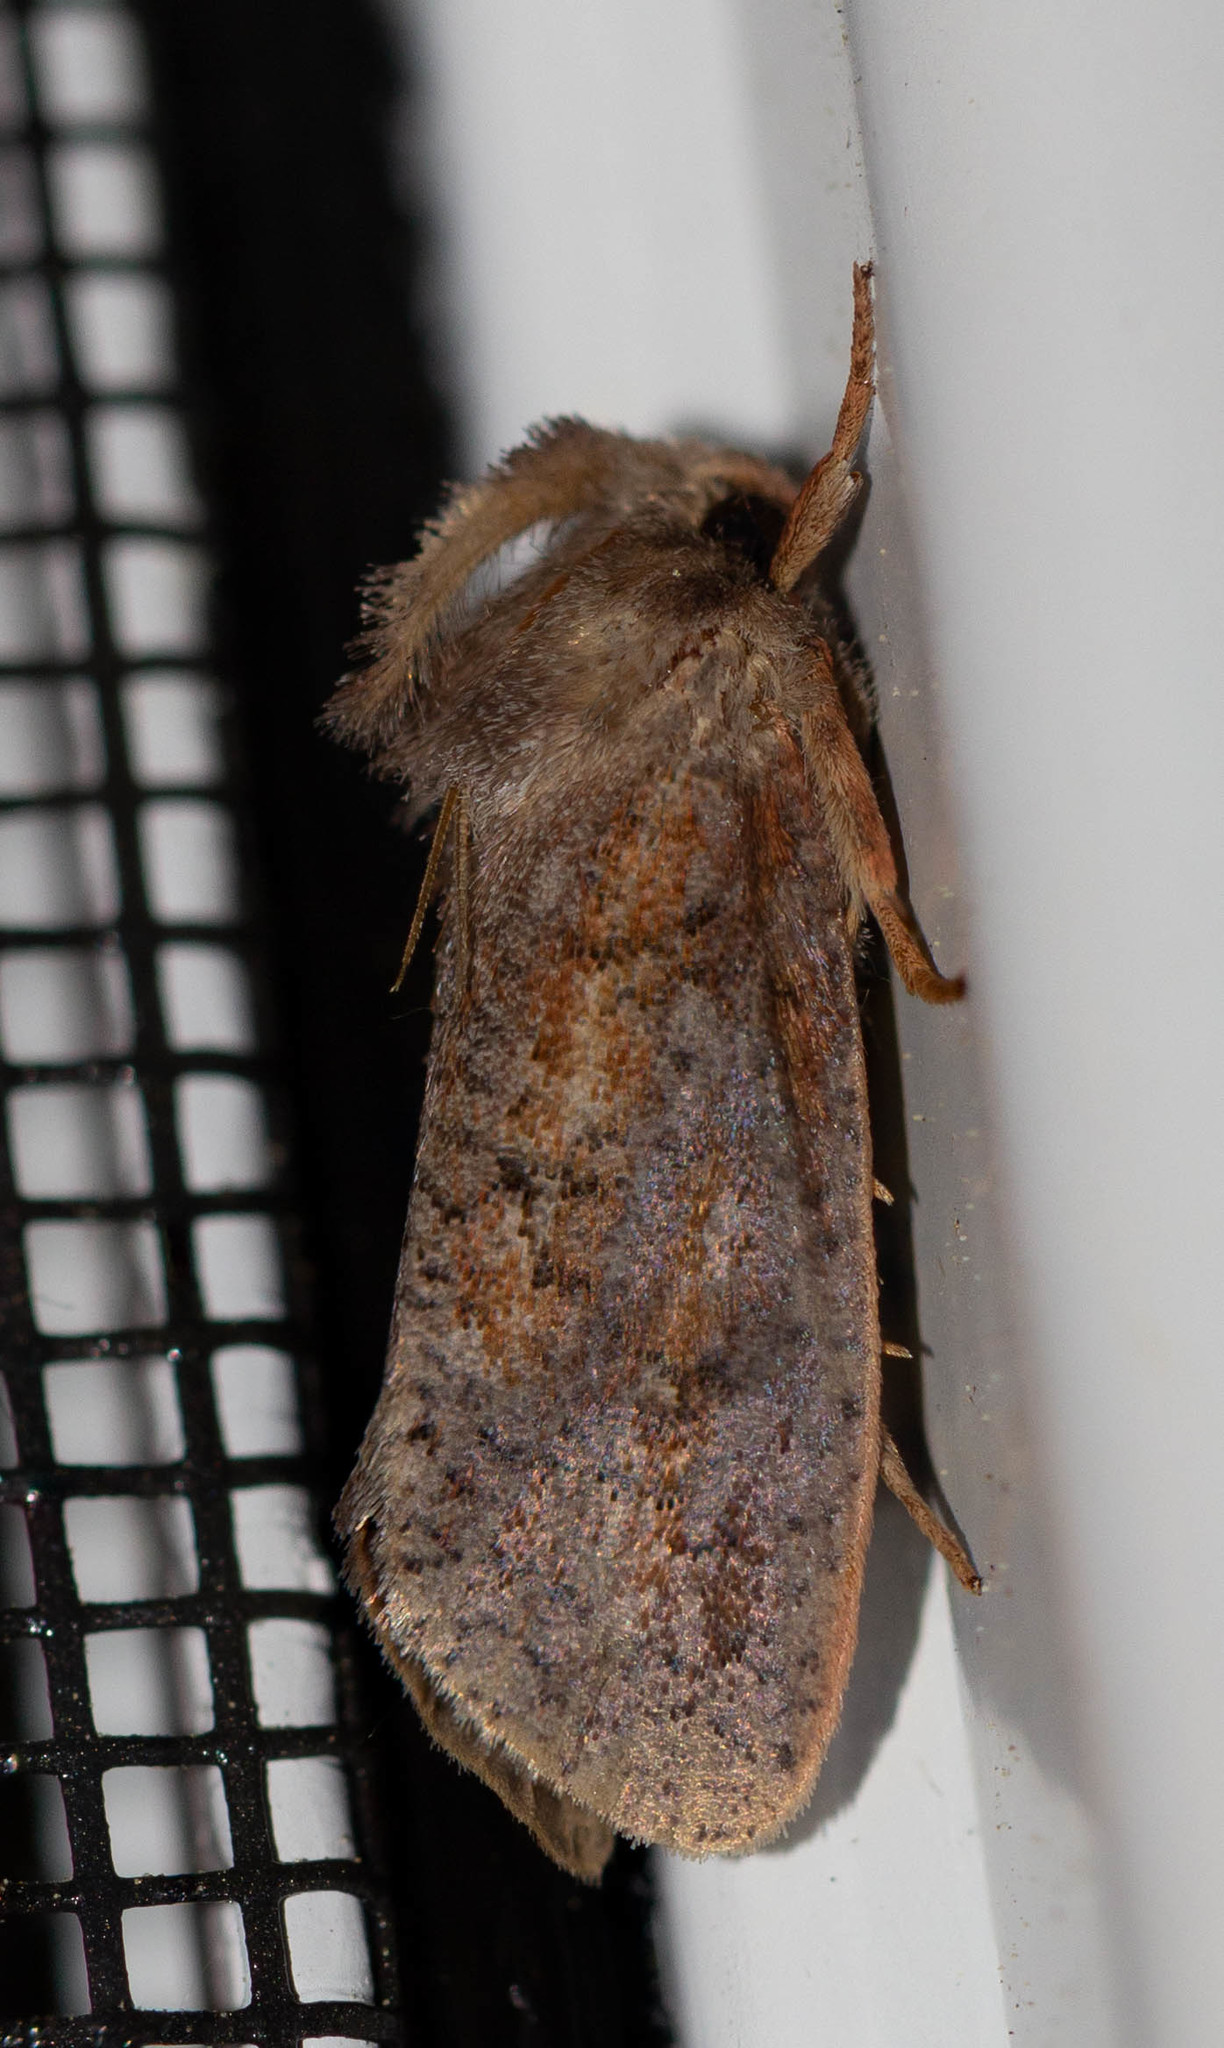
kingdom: Animalia
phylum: Arthropoda
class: Insecta
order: Lepidoptera
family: Tineidae
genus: Acrolophus
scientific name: Acrolophus plumifrontella
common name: Eastern grass tubeworm moth
